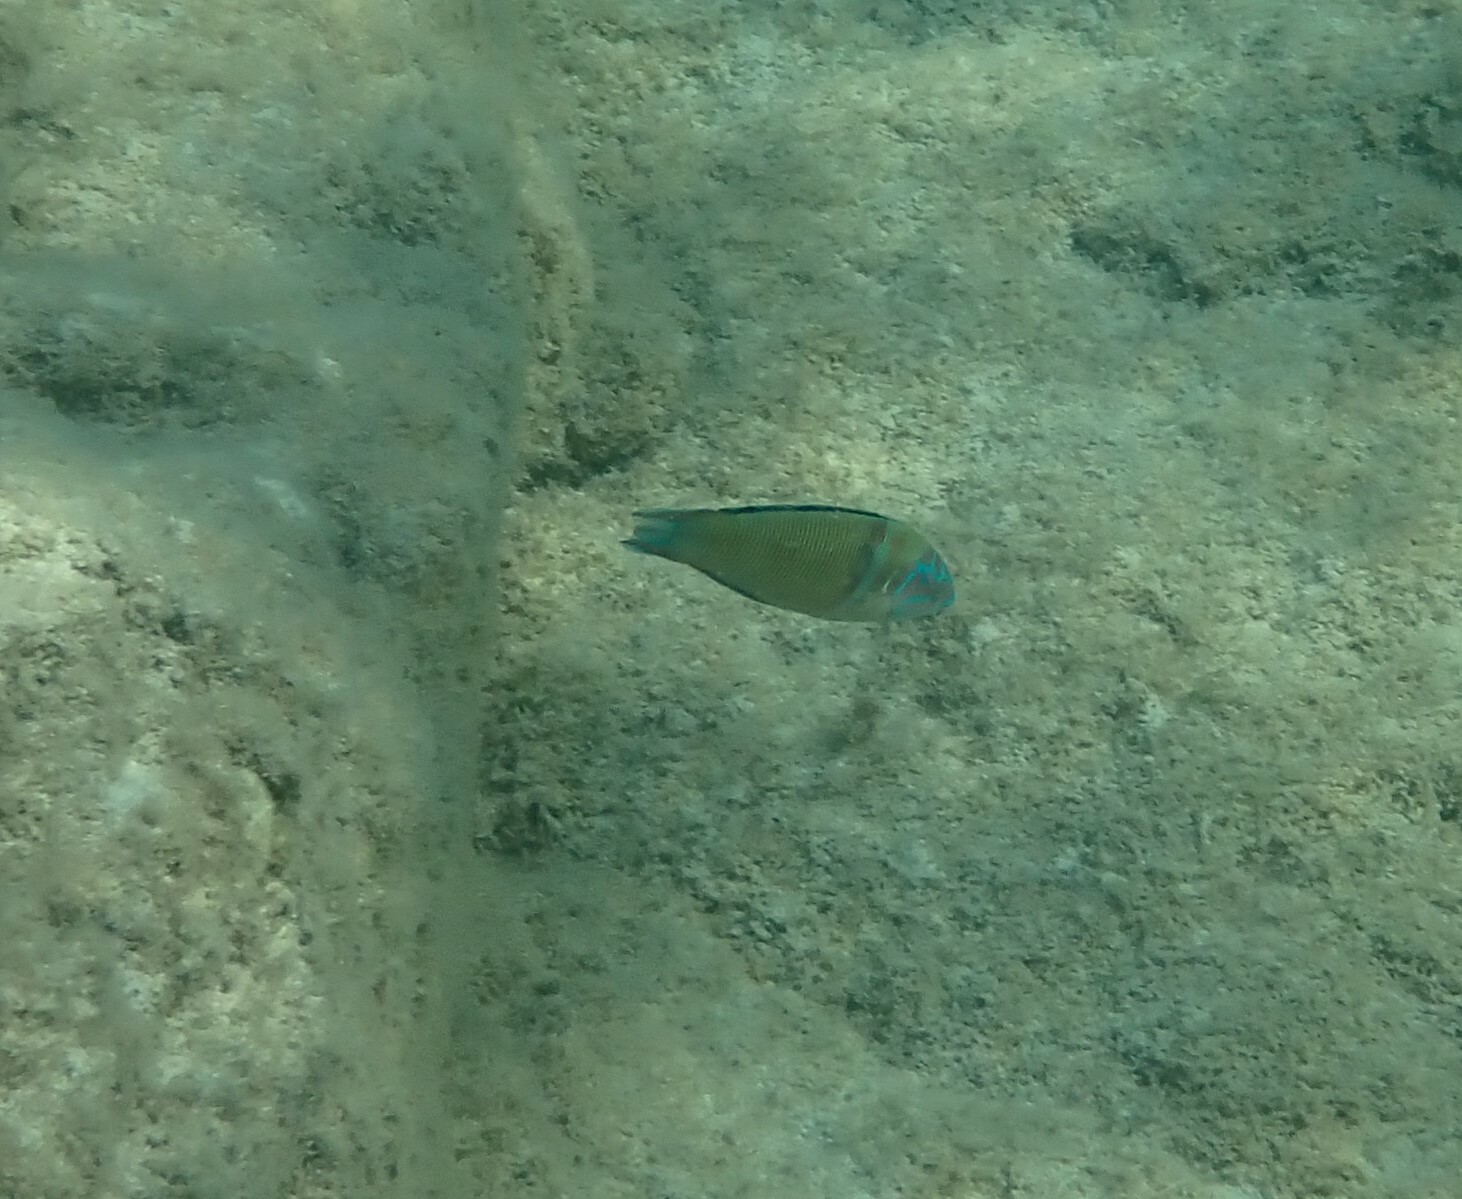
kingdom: Animalia
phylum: Chordata
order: Perciformes
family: Labridae
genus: Thalassoma
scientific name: Thalassoma pavo
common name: Ornate wrasse
